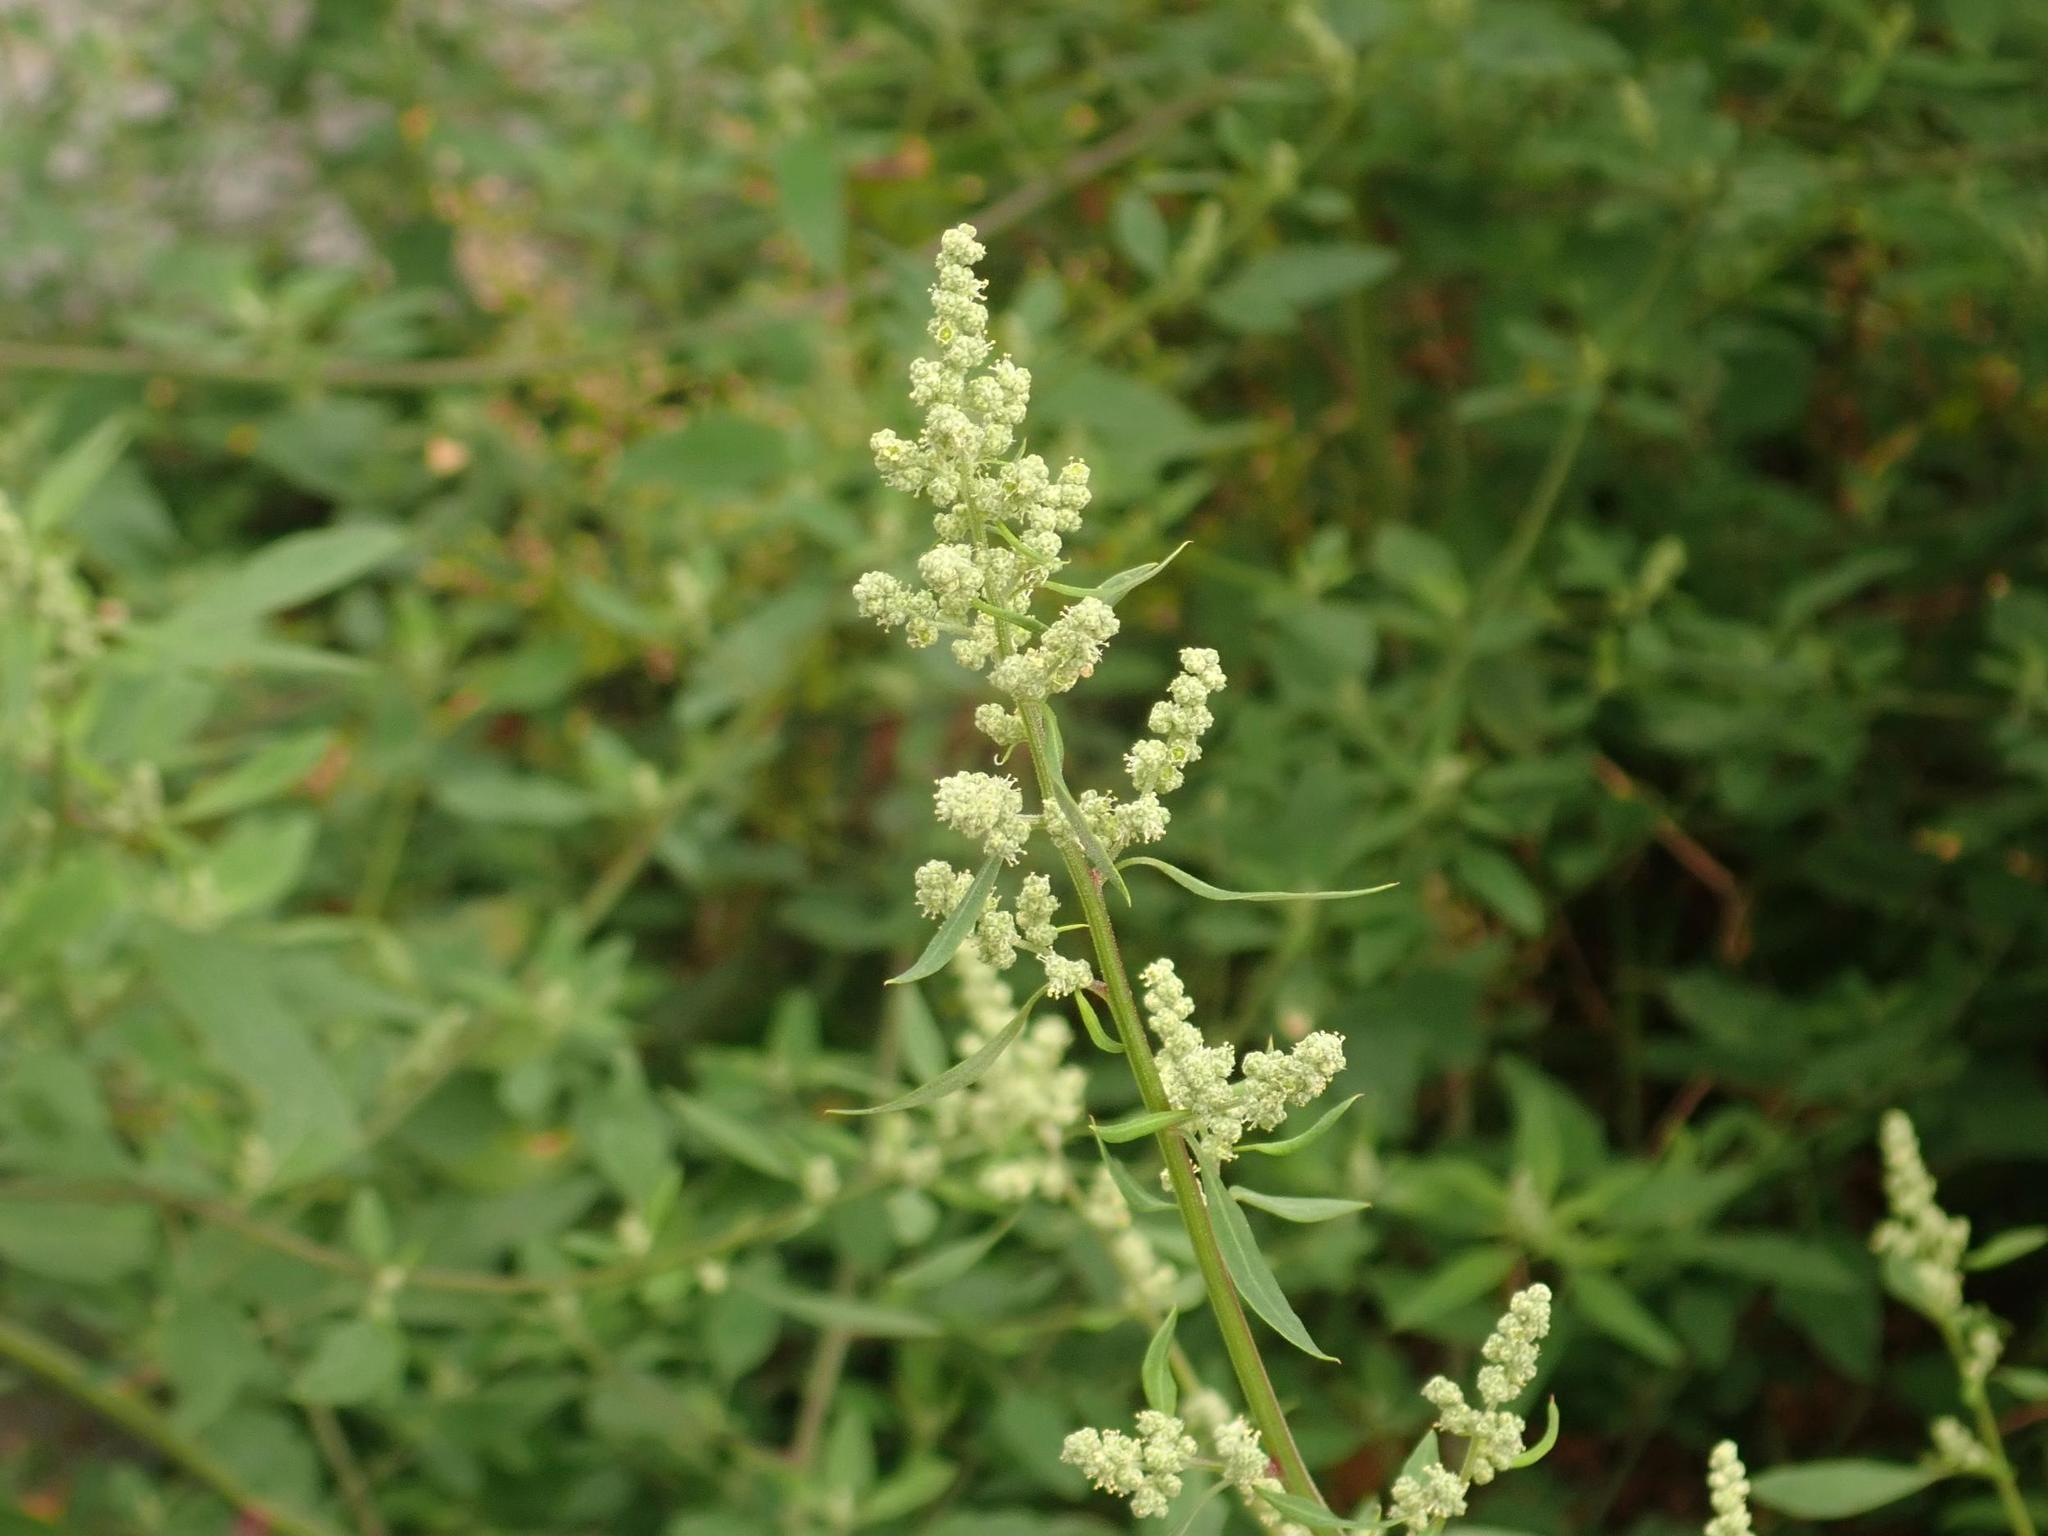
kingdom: Plantae
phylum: Tracheophyta
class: Magnoliopsida
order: Caryophyllales
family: Amaranthaceae
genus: Chenopodium
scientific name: Chenopodium album
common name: Fat-hen
